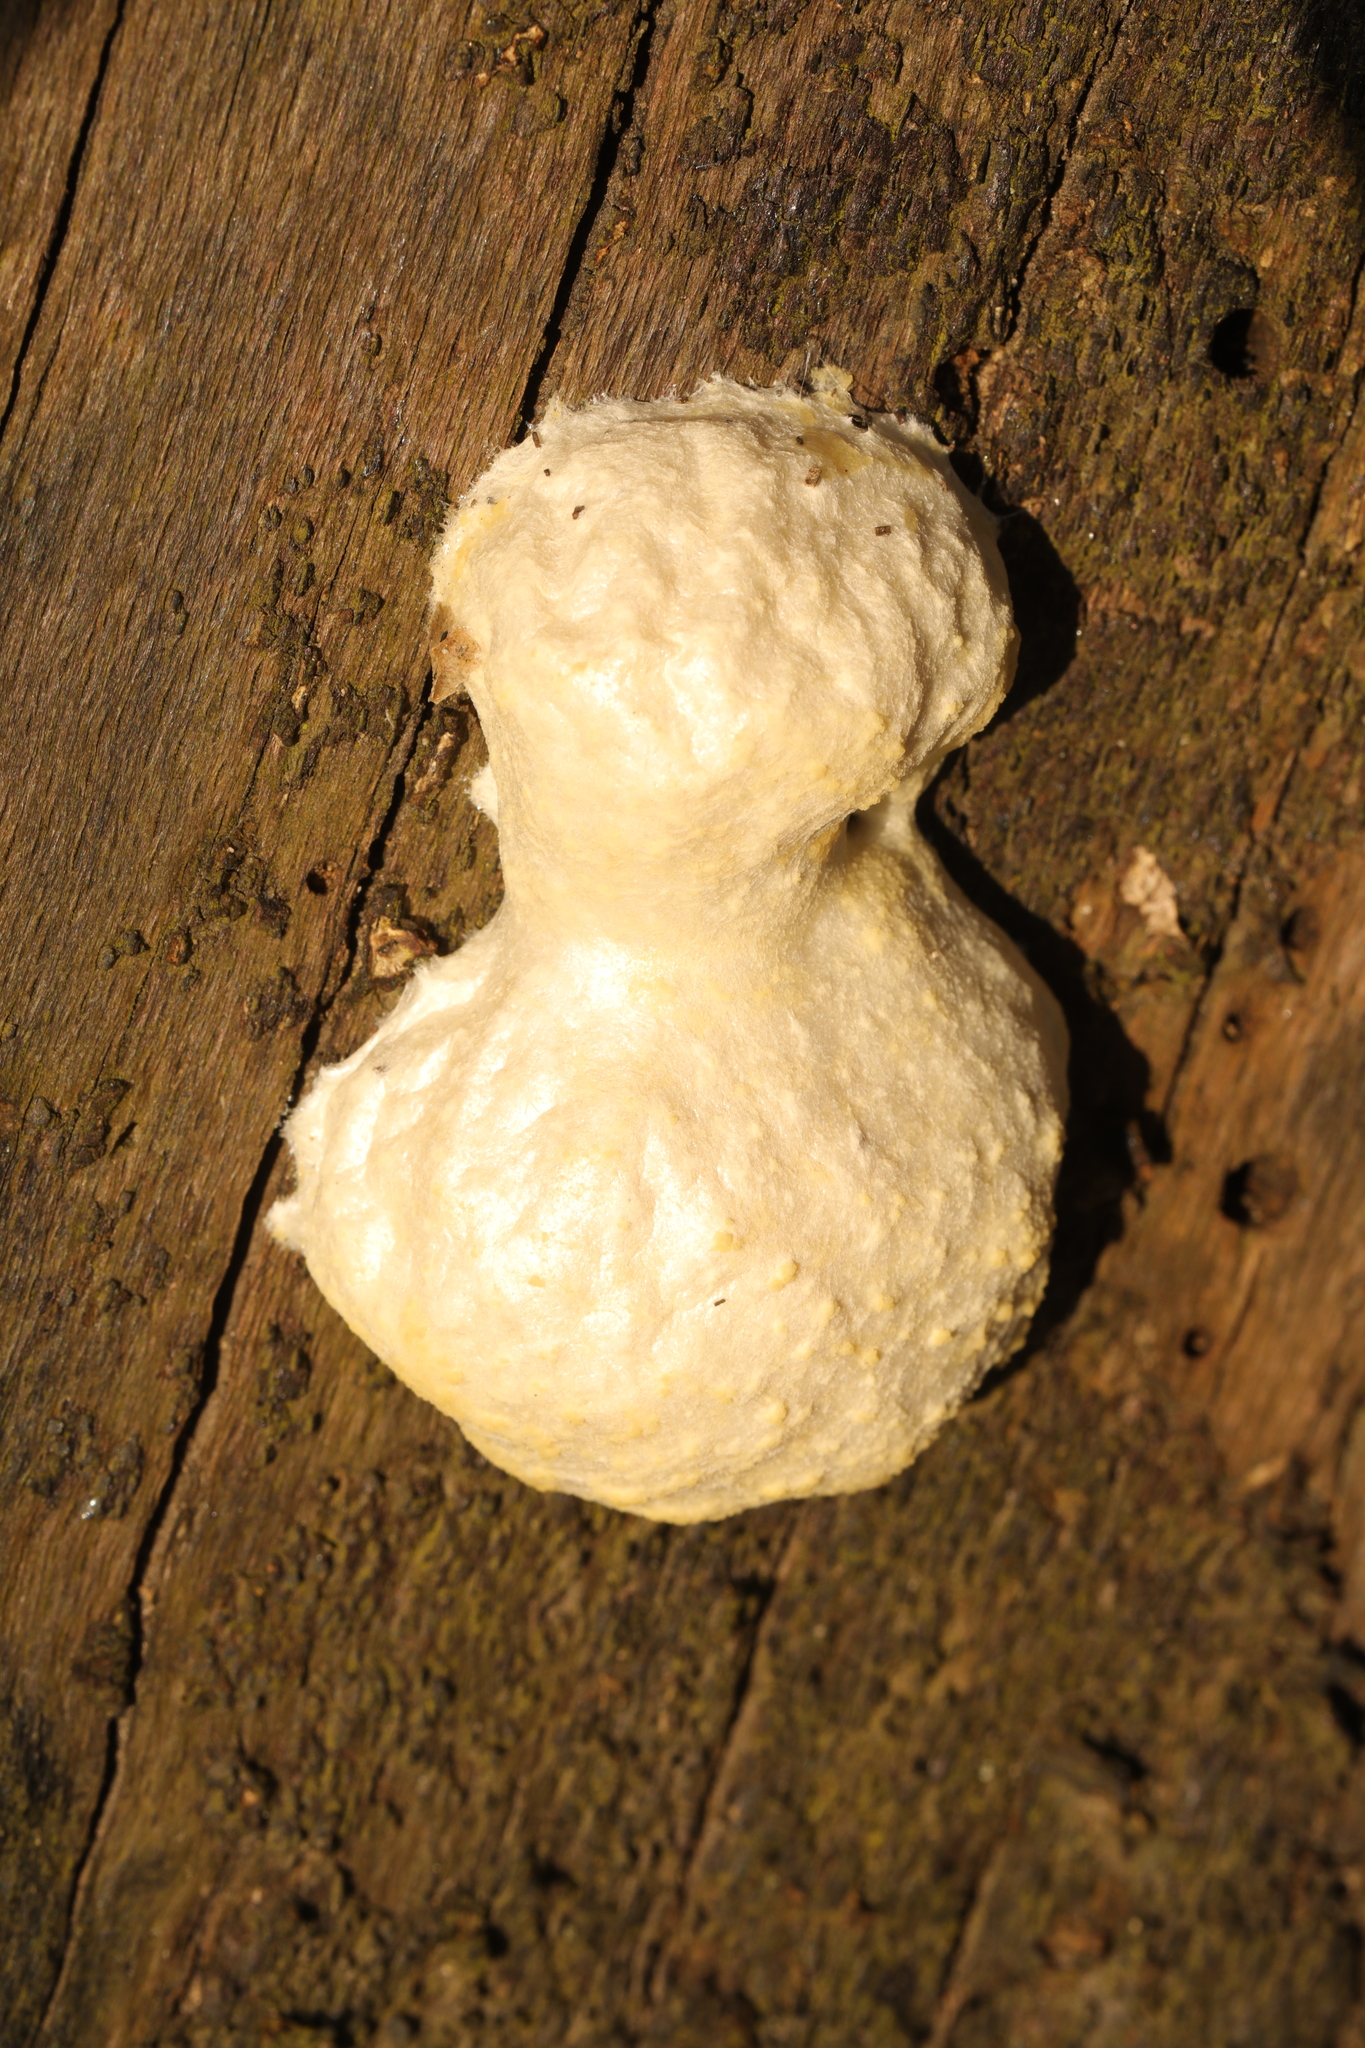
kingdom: Protozoa
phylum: Mycetozoa
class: Myxomycetes
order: Cribrariales
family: Tubiferaceae
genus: Reticularia
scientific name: Reticularia lycoperdon
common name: False puffball
